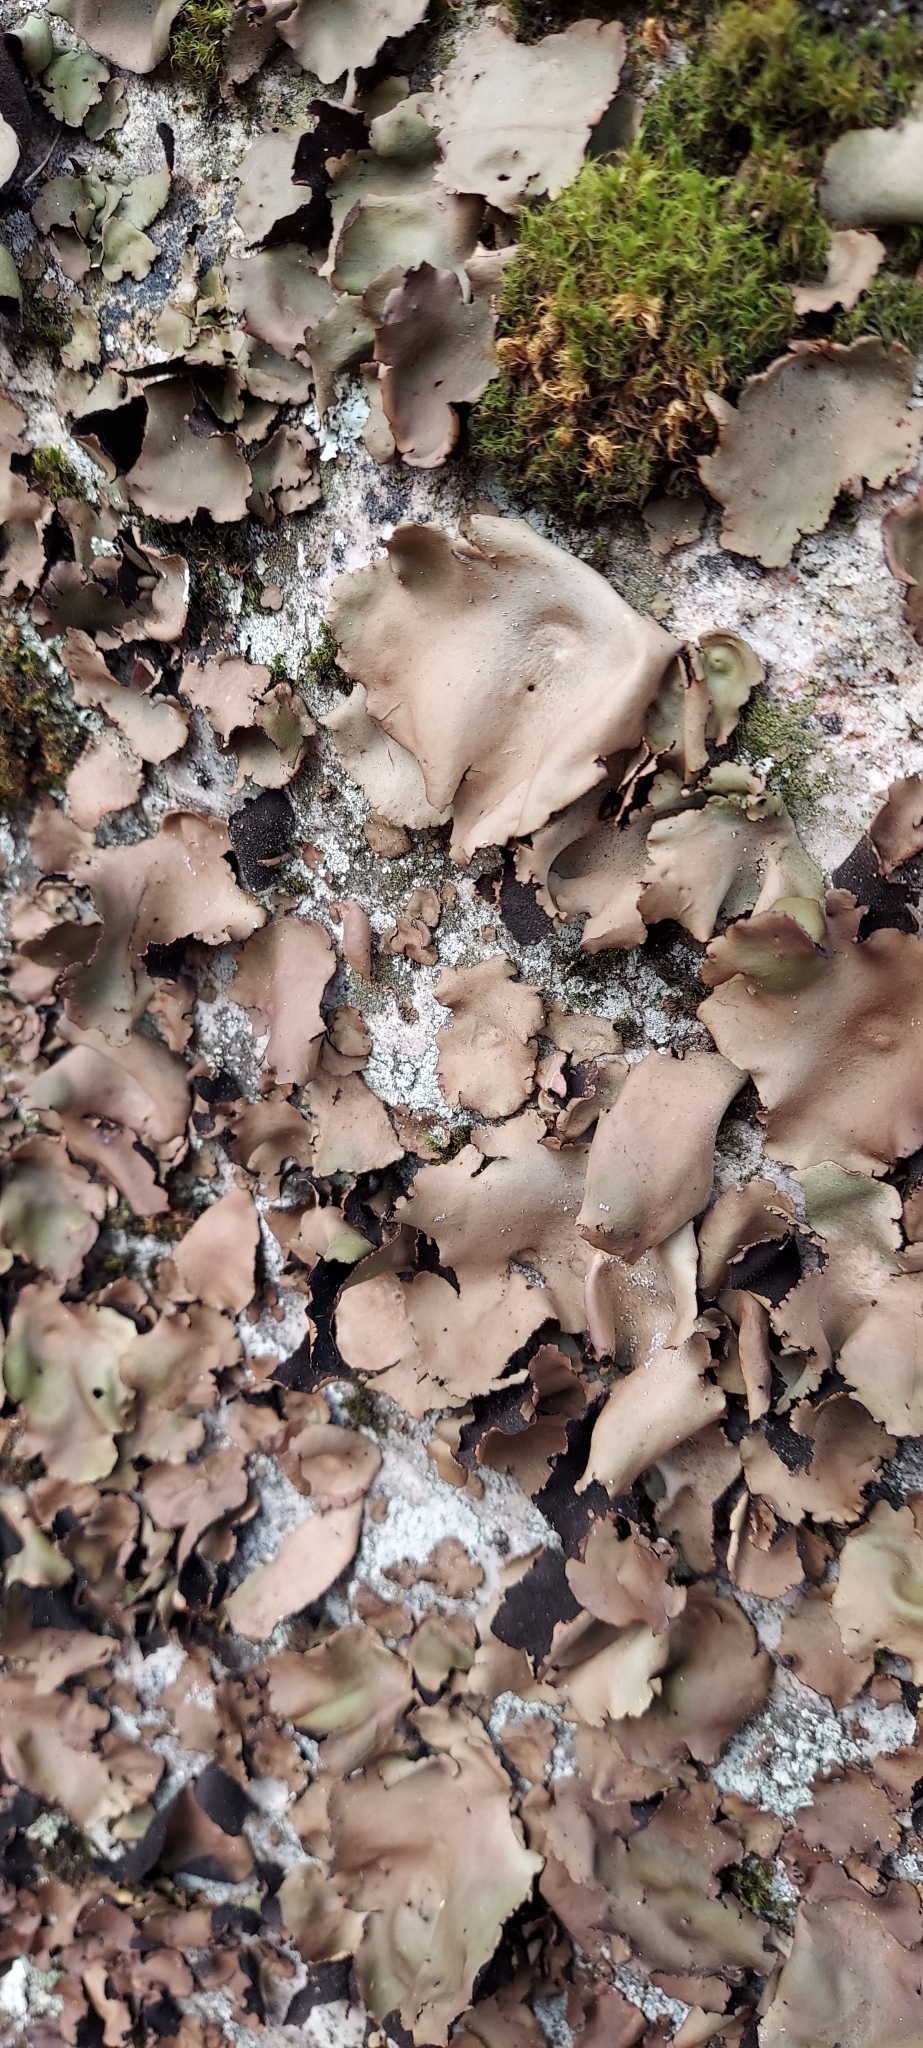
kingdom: Fungi
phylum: Ascomycota
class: Lecanoromycetes
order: Umbilicariales
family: Umbilicariaceae
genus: Umbilicaria
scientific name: Umbilicaria mammulata
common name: Smooth rock tripe
